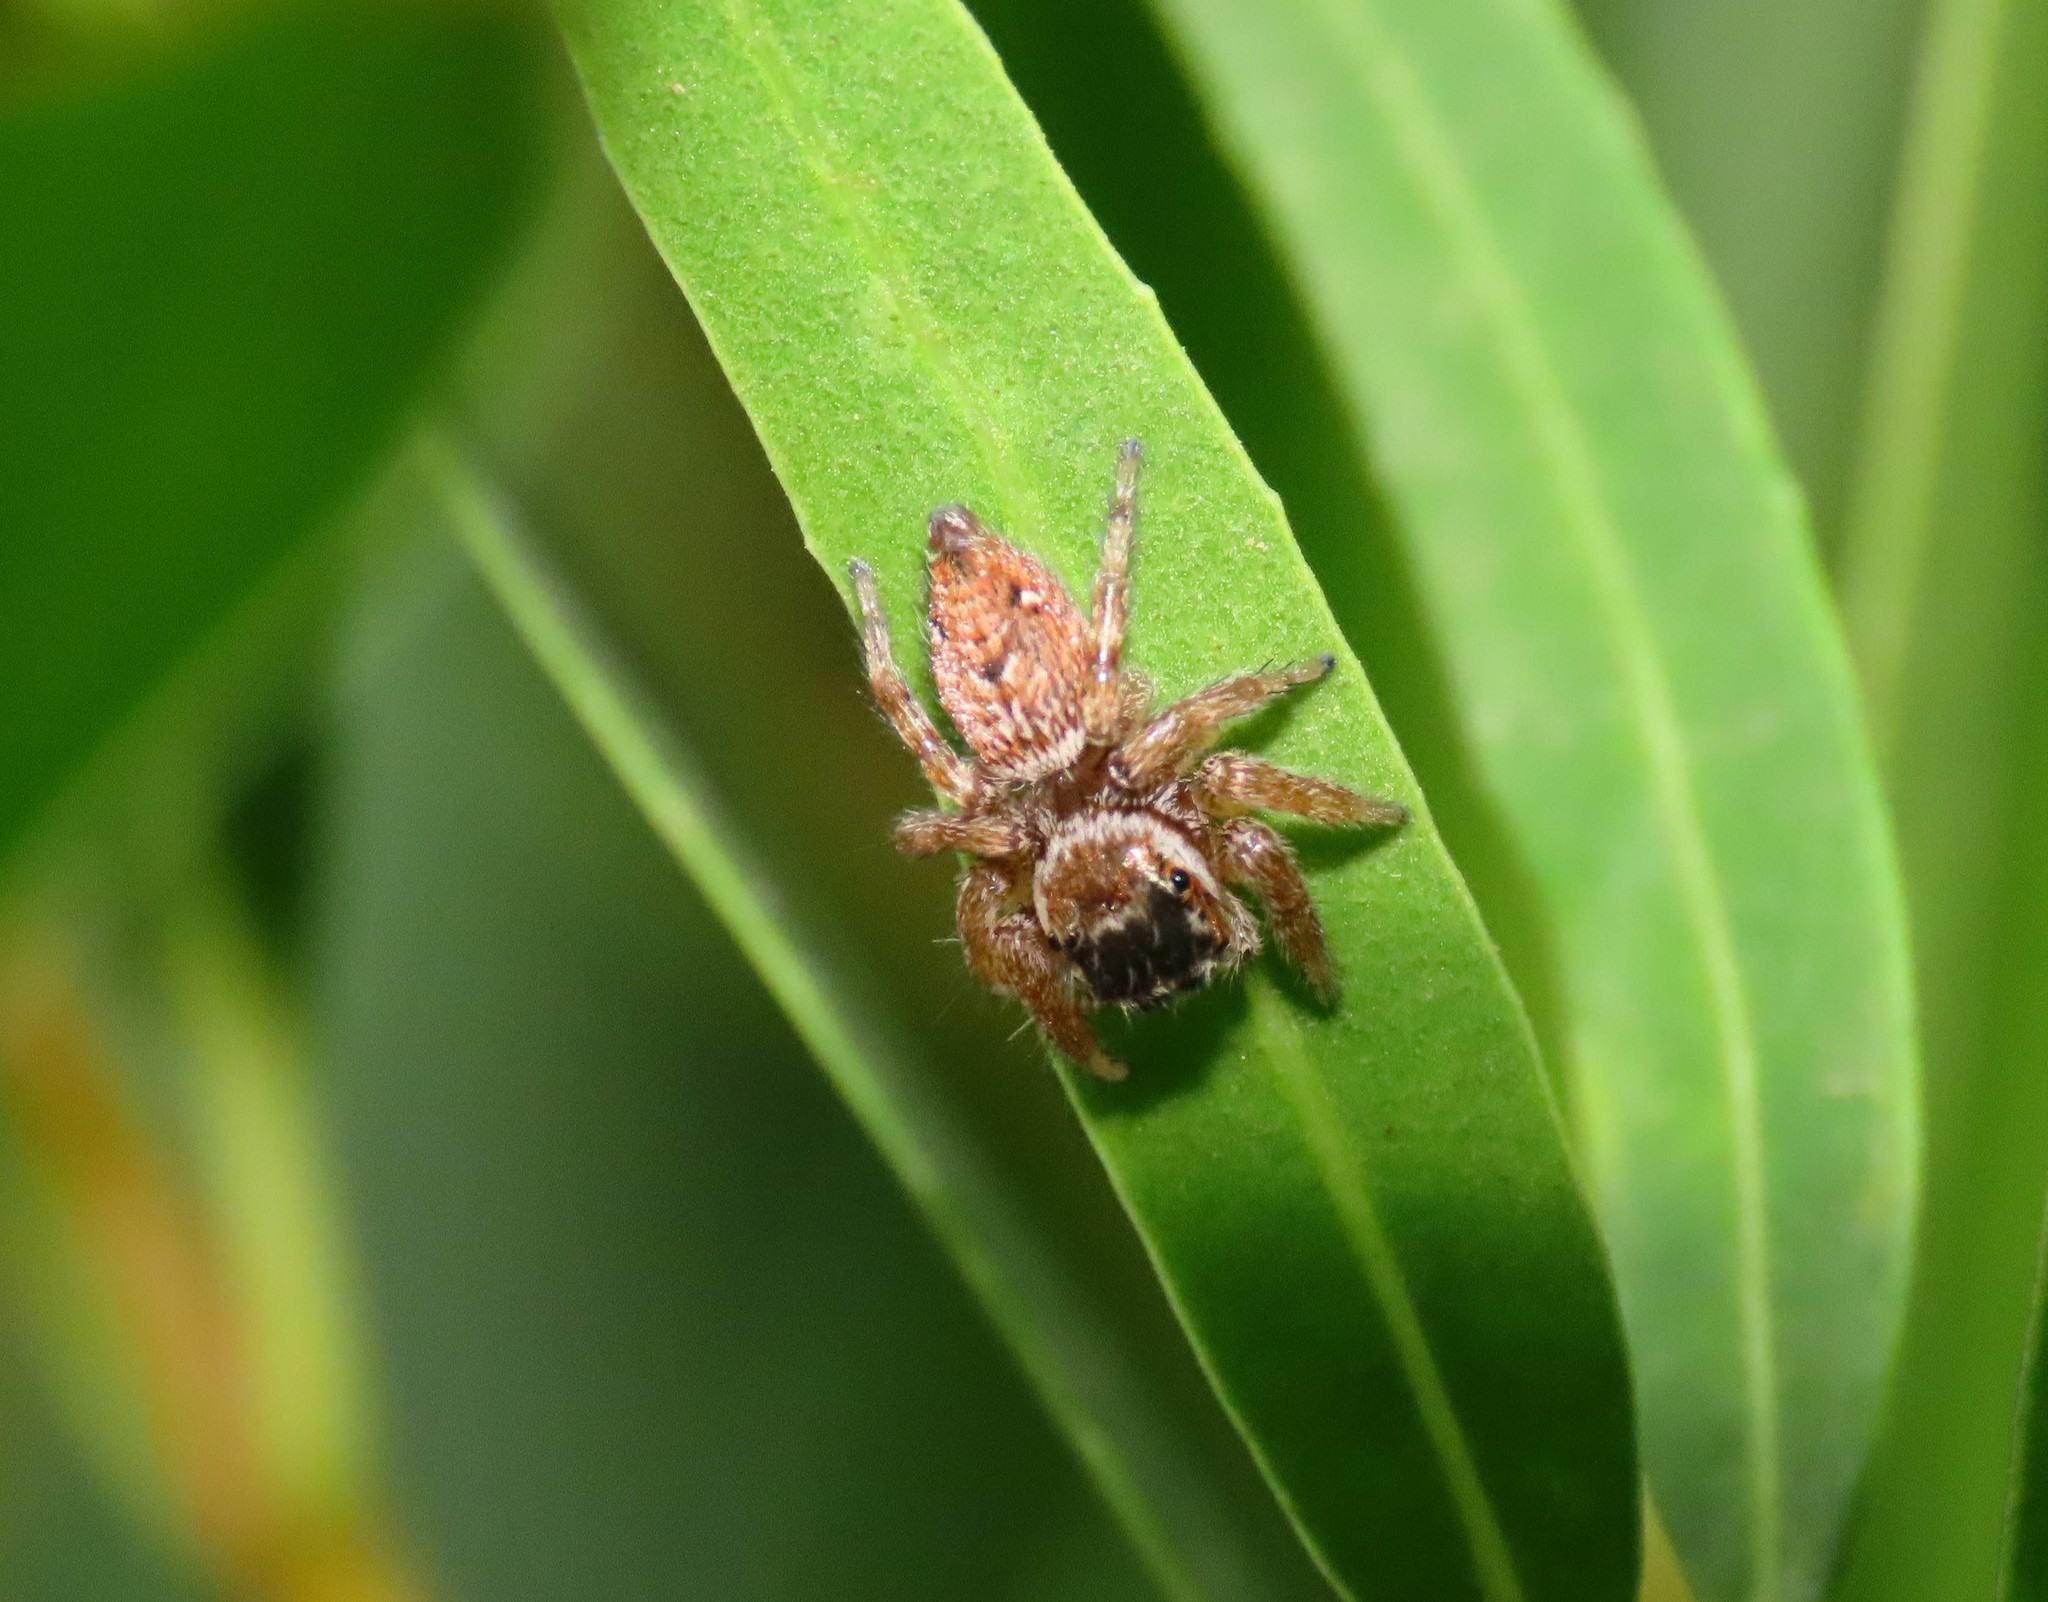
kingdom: Animalia
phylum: Arthropoda
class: Arachnida
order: Araneae
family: Salticidae
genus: Evarcha
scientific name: Evarcha jucunda
